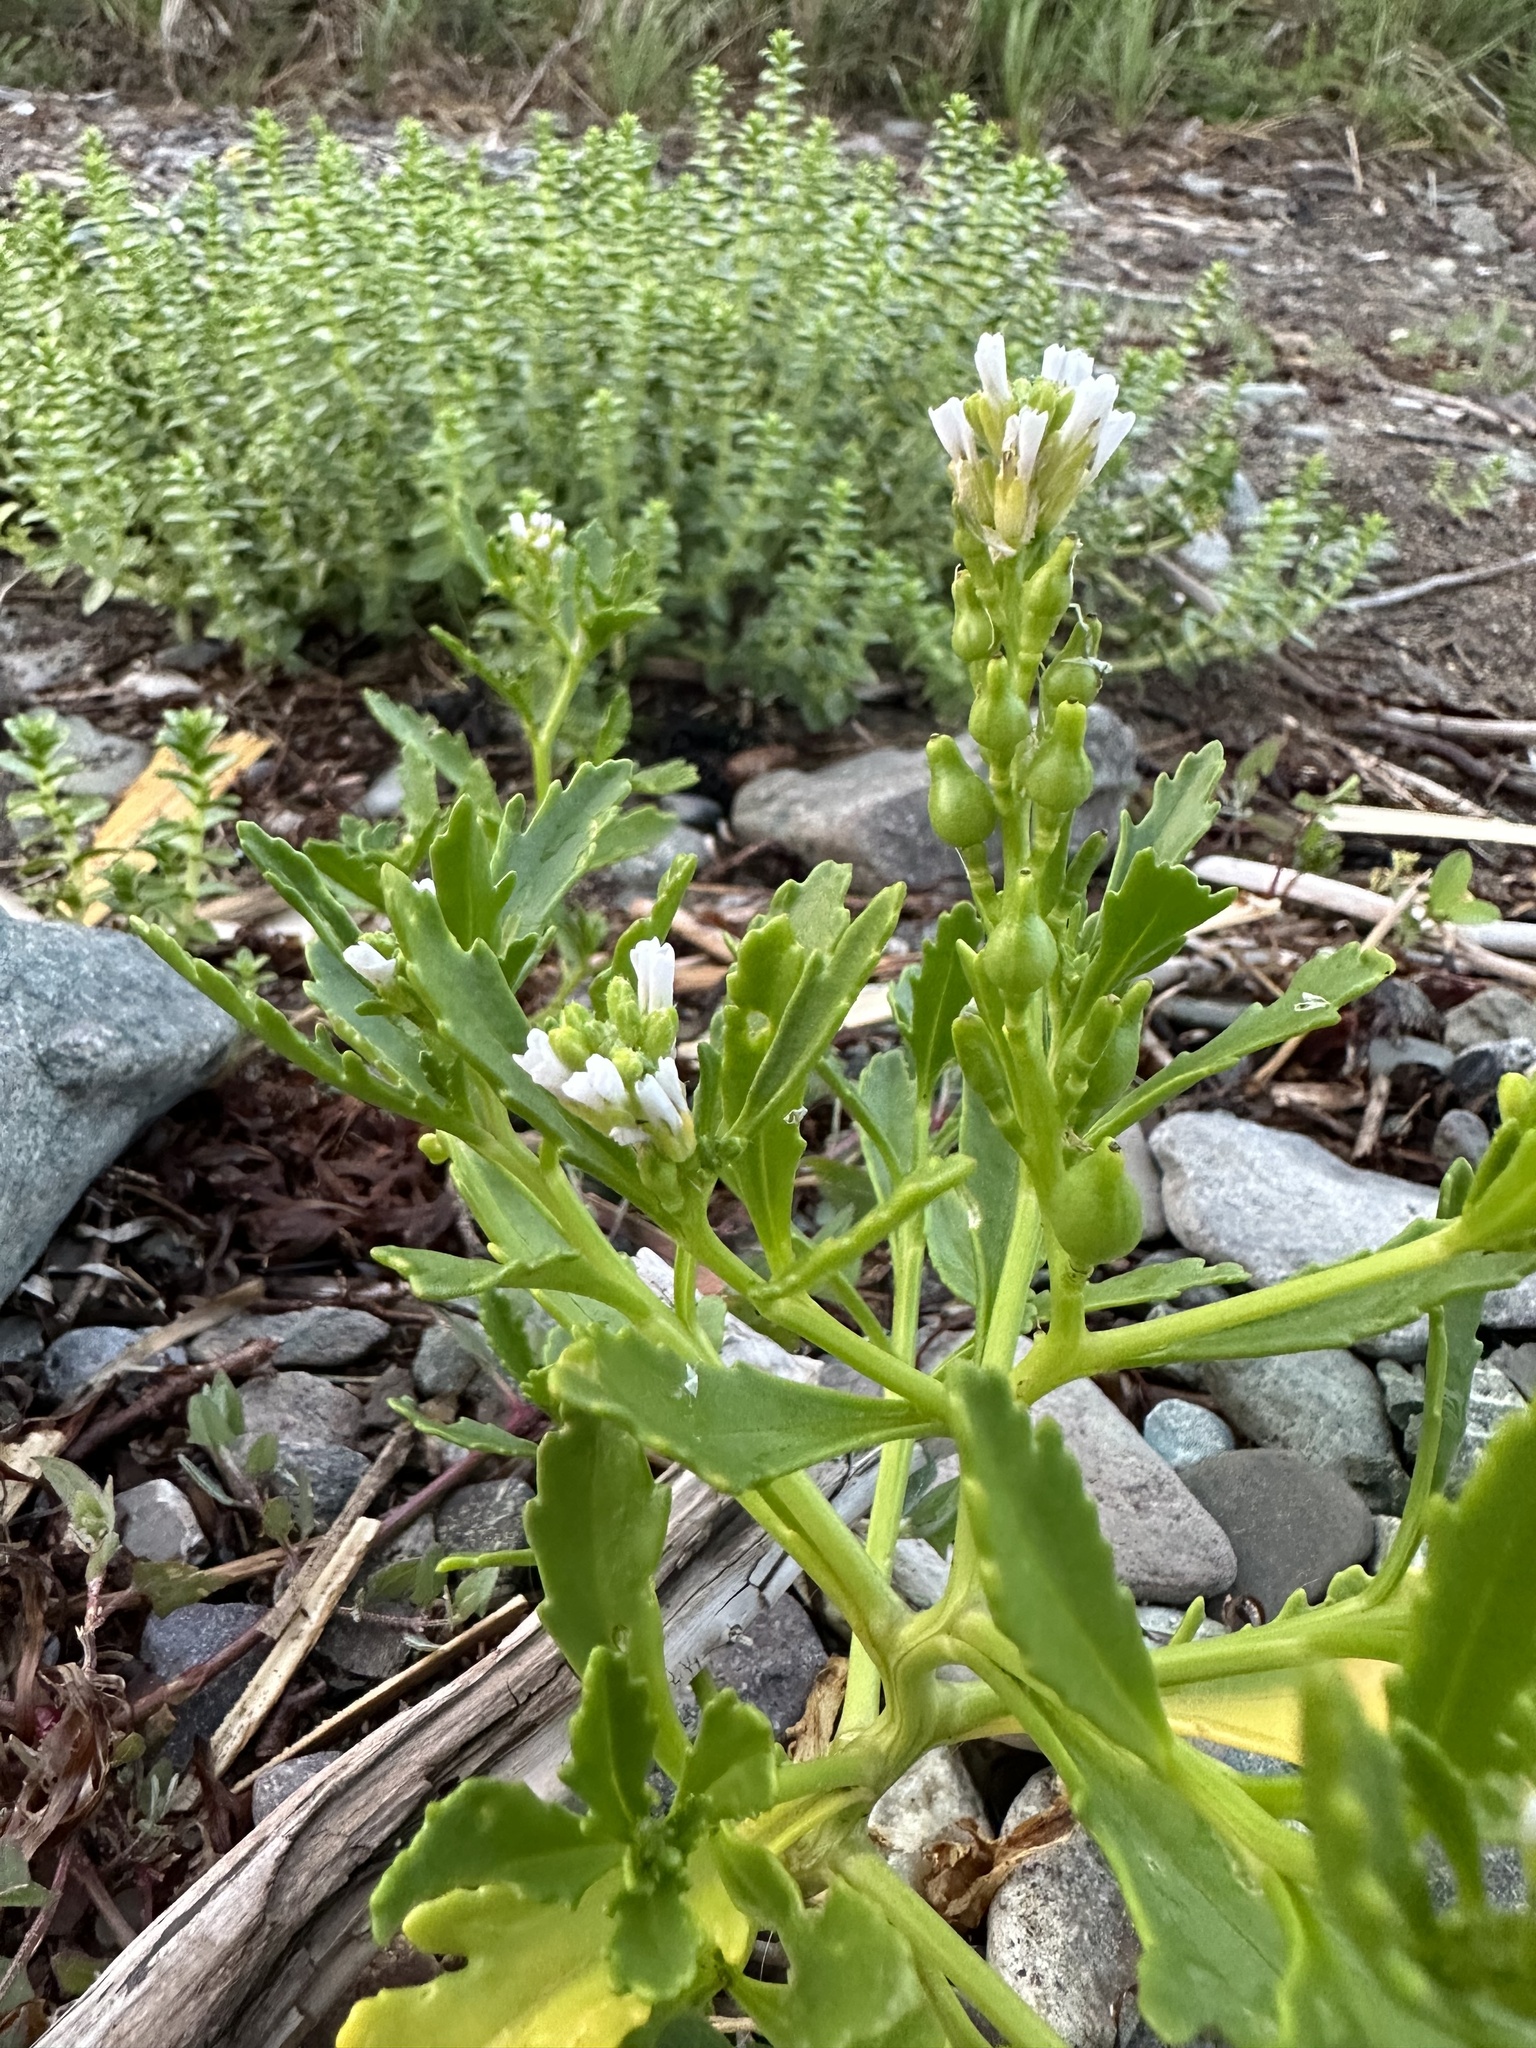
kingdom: Plantae
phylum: Tracheophyta
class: Magnoliopsida
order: Brassicales
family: Brassicaceae
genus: Cakile
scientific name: Cakile edentula
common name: American sea rocket
